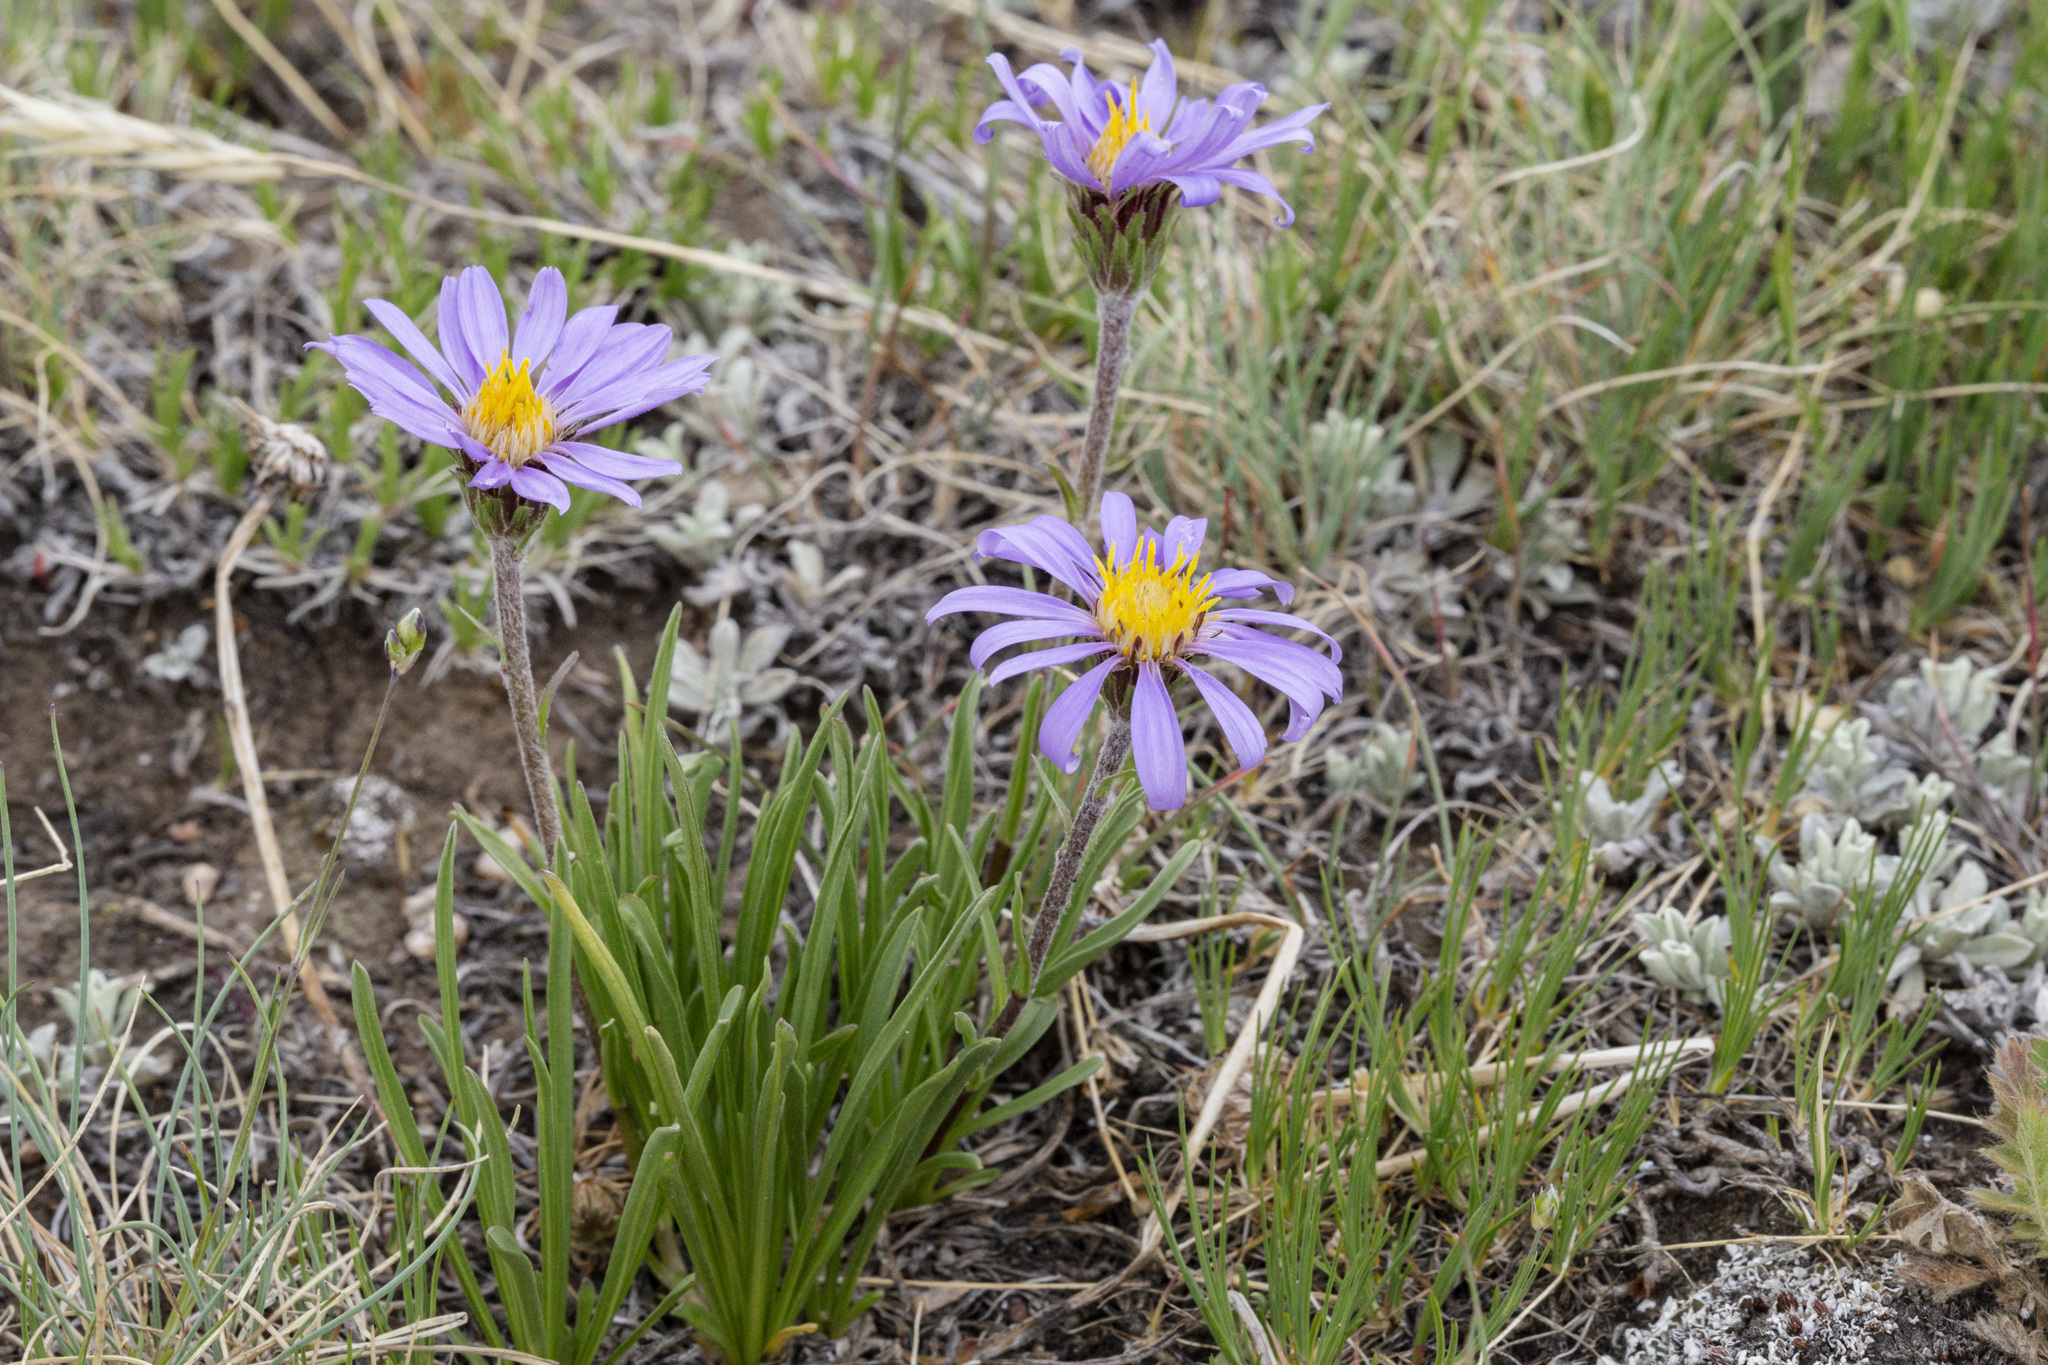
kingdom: Plantae
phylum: Tracheophyta
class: Magnoliopsida
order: Asterales
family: Asteraceae
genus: Oreostemma
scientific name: Oreostemma alpigenum
